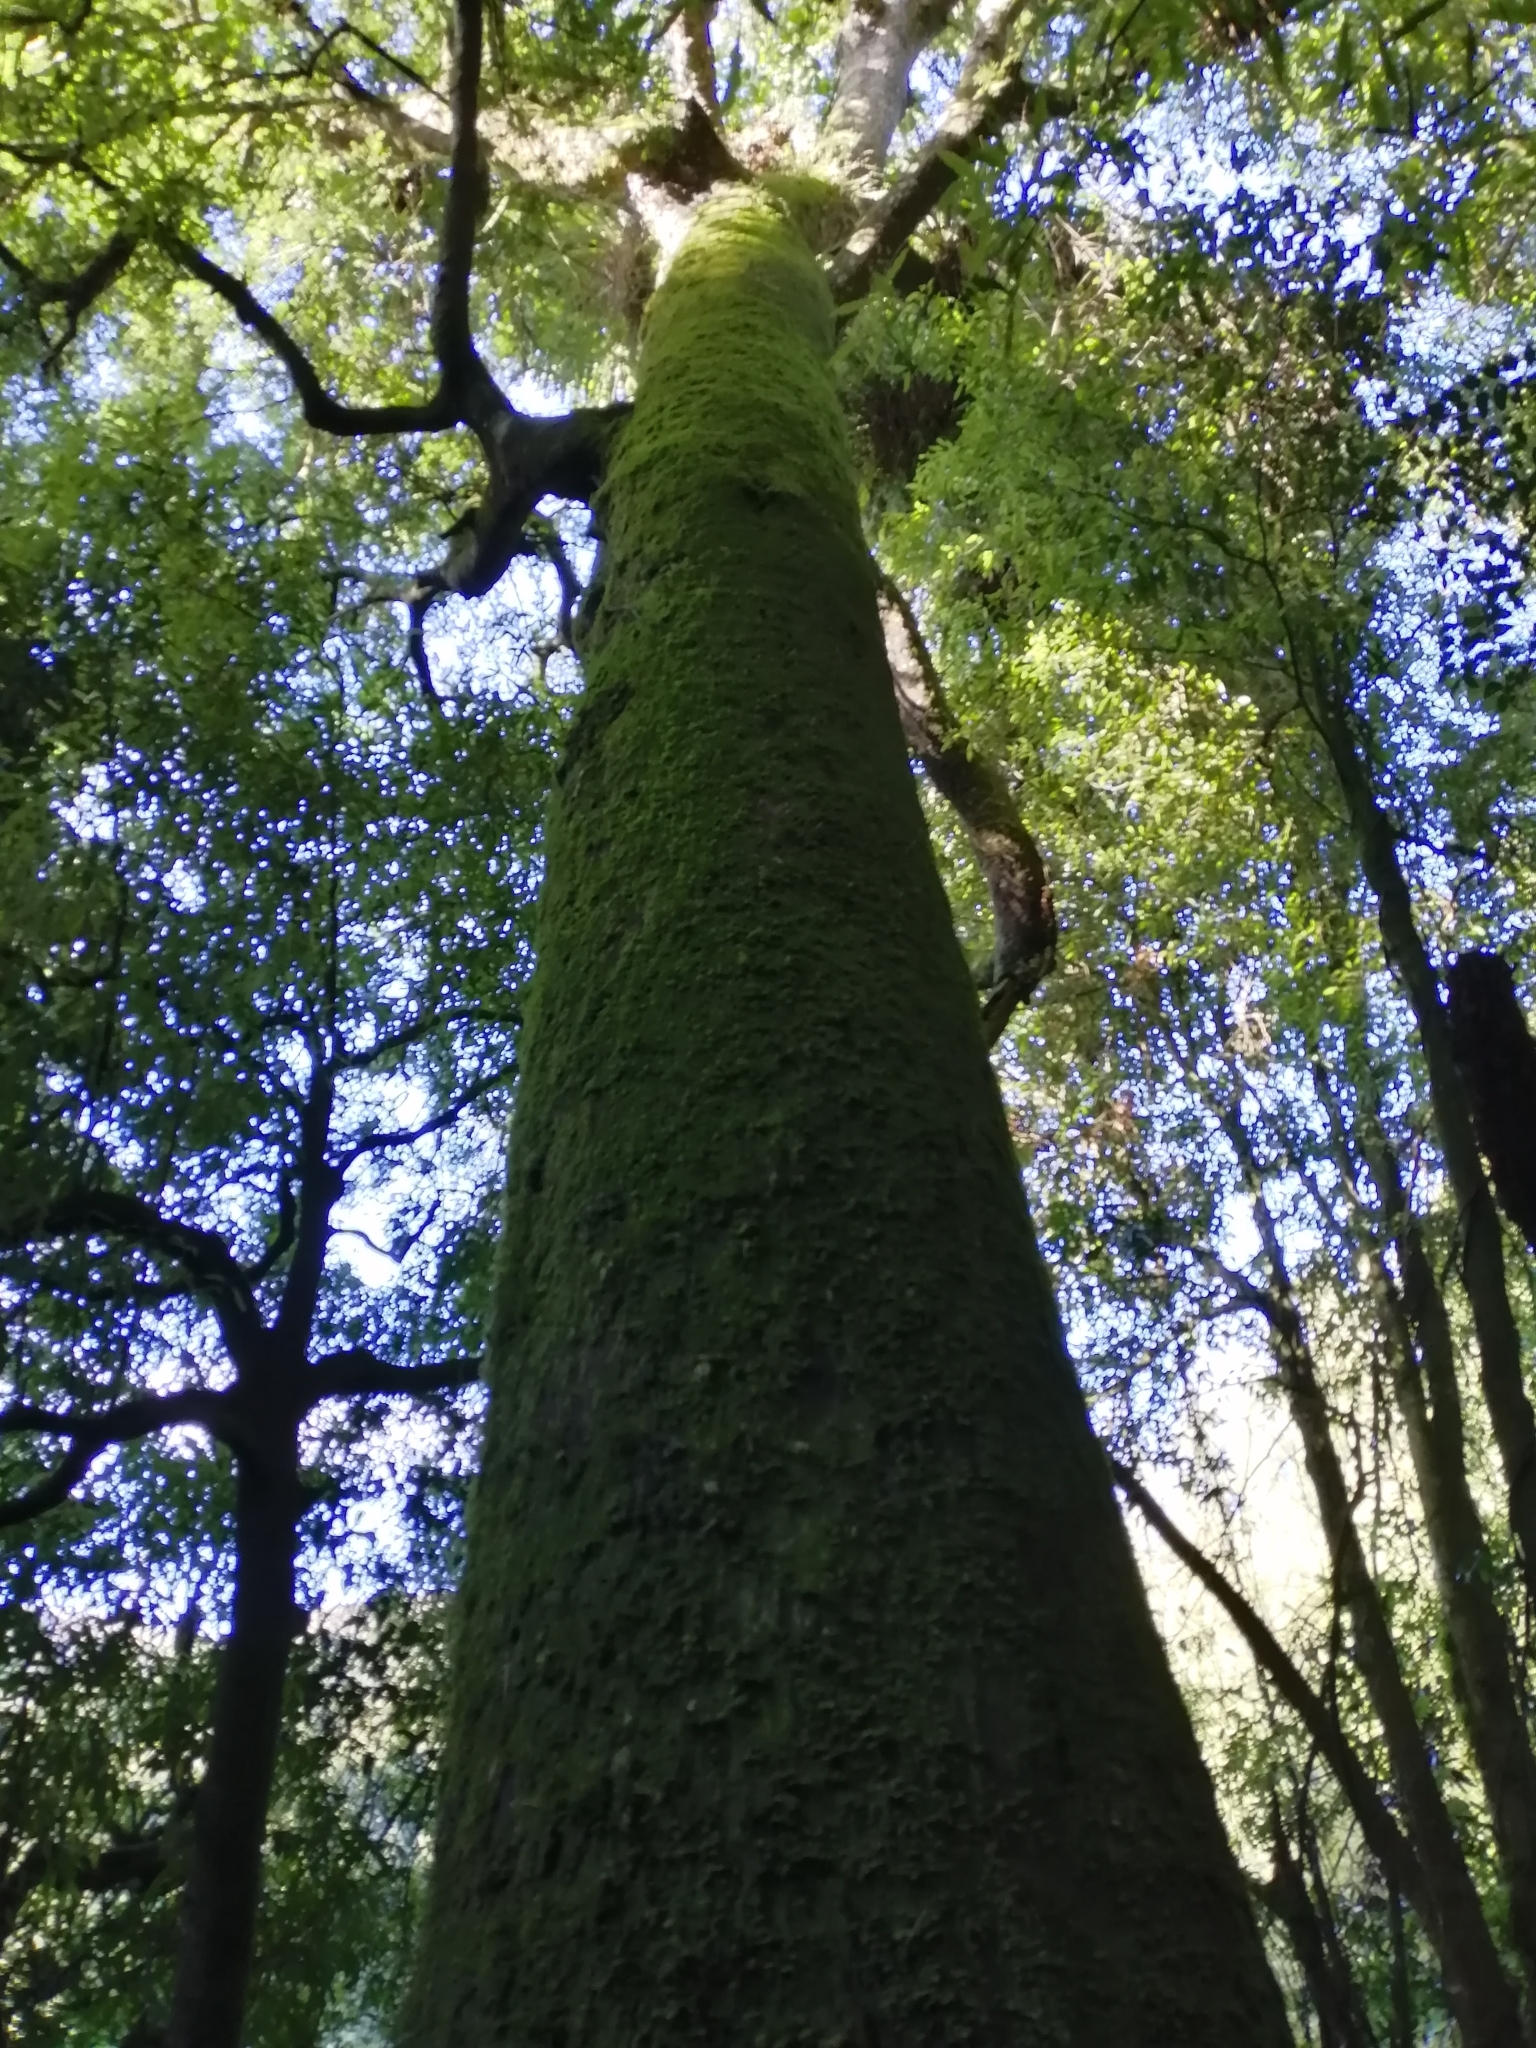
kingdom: Plantae
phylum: Tracheophyta
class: Pinopsida
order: Pinales
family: Podocarpaceae
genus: Prumnopitys
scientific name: Prumnopitys ferruginea
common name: Brown pine
